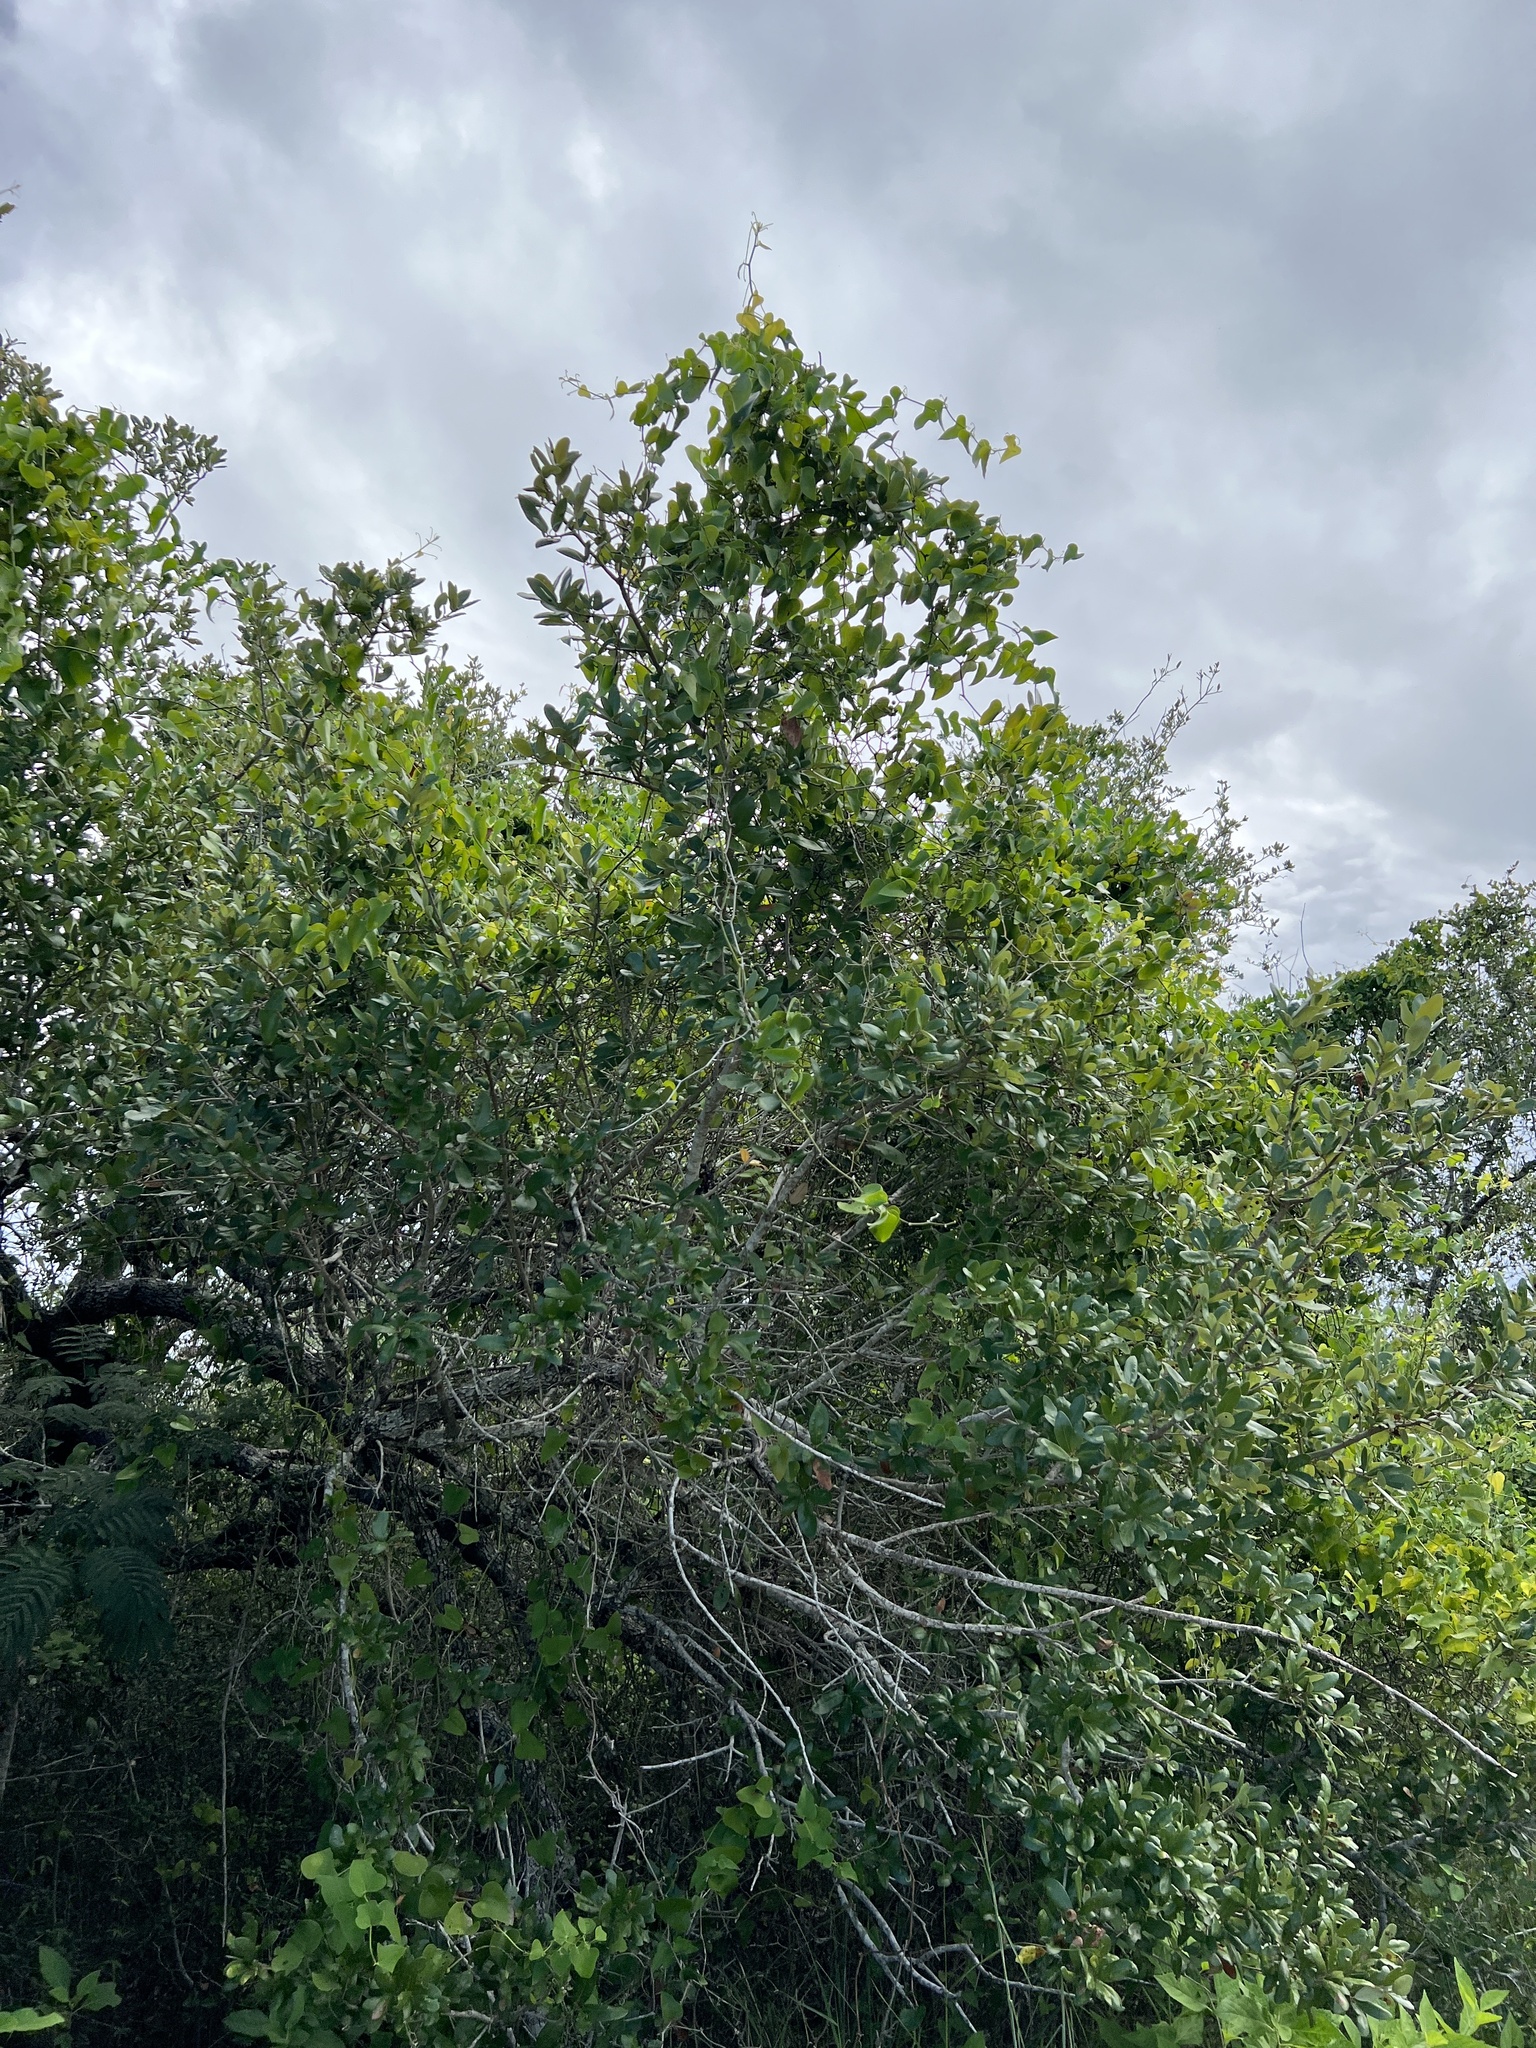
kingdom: Plantae
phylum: Tracheophyta
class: Magnoliopsida
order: Fagales
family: Fagaceae
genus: Quercus
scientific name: Quercus fusiformis
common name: Texas live oak
